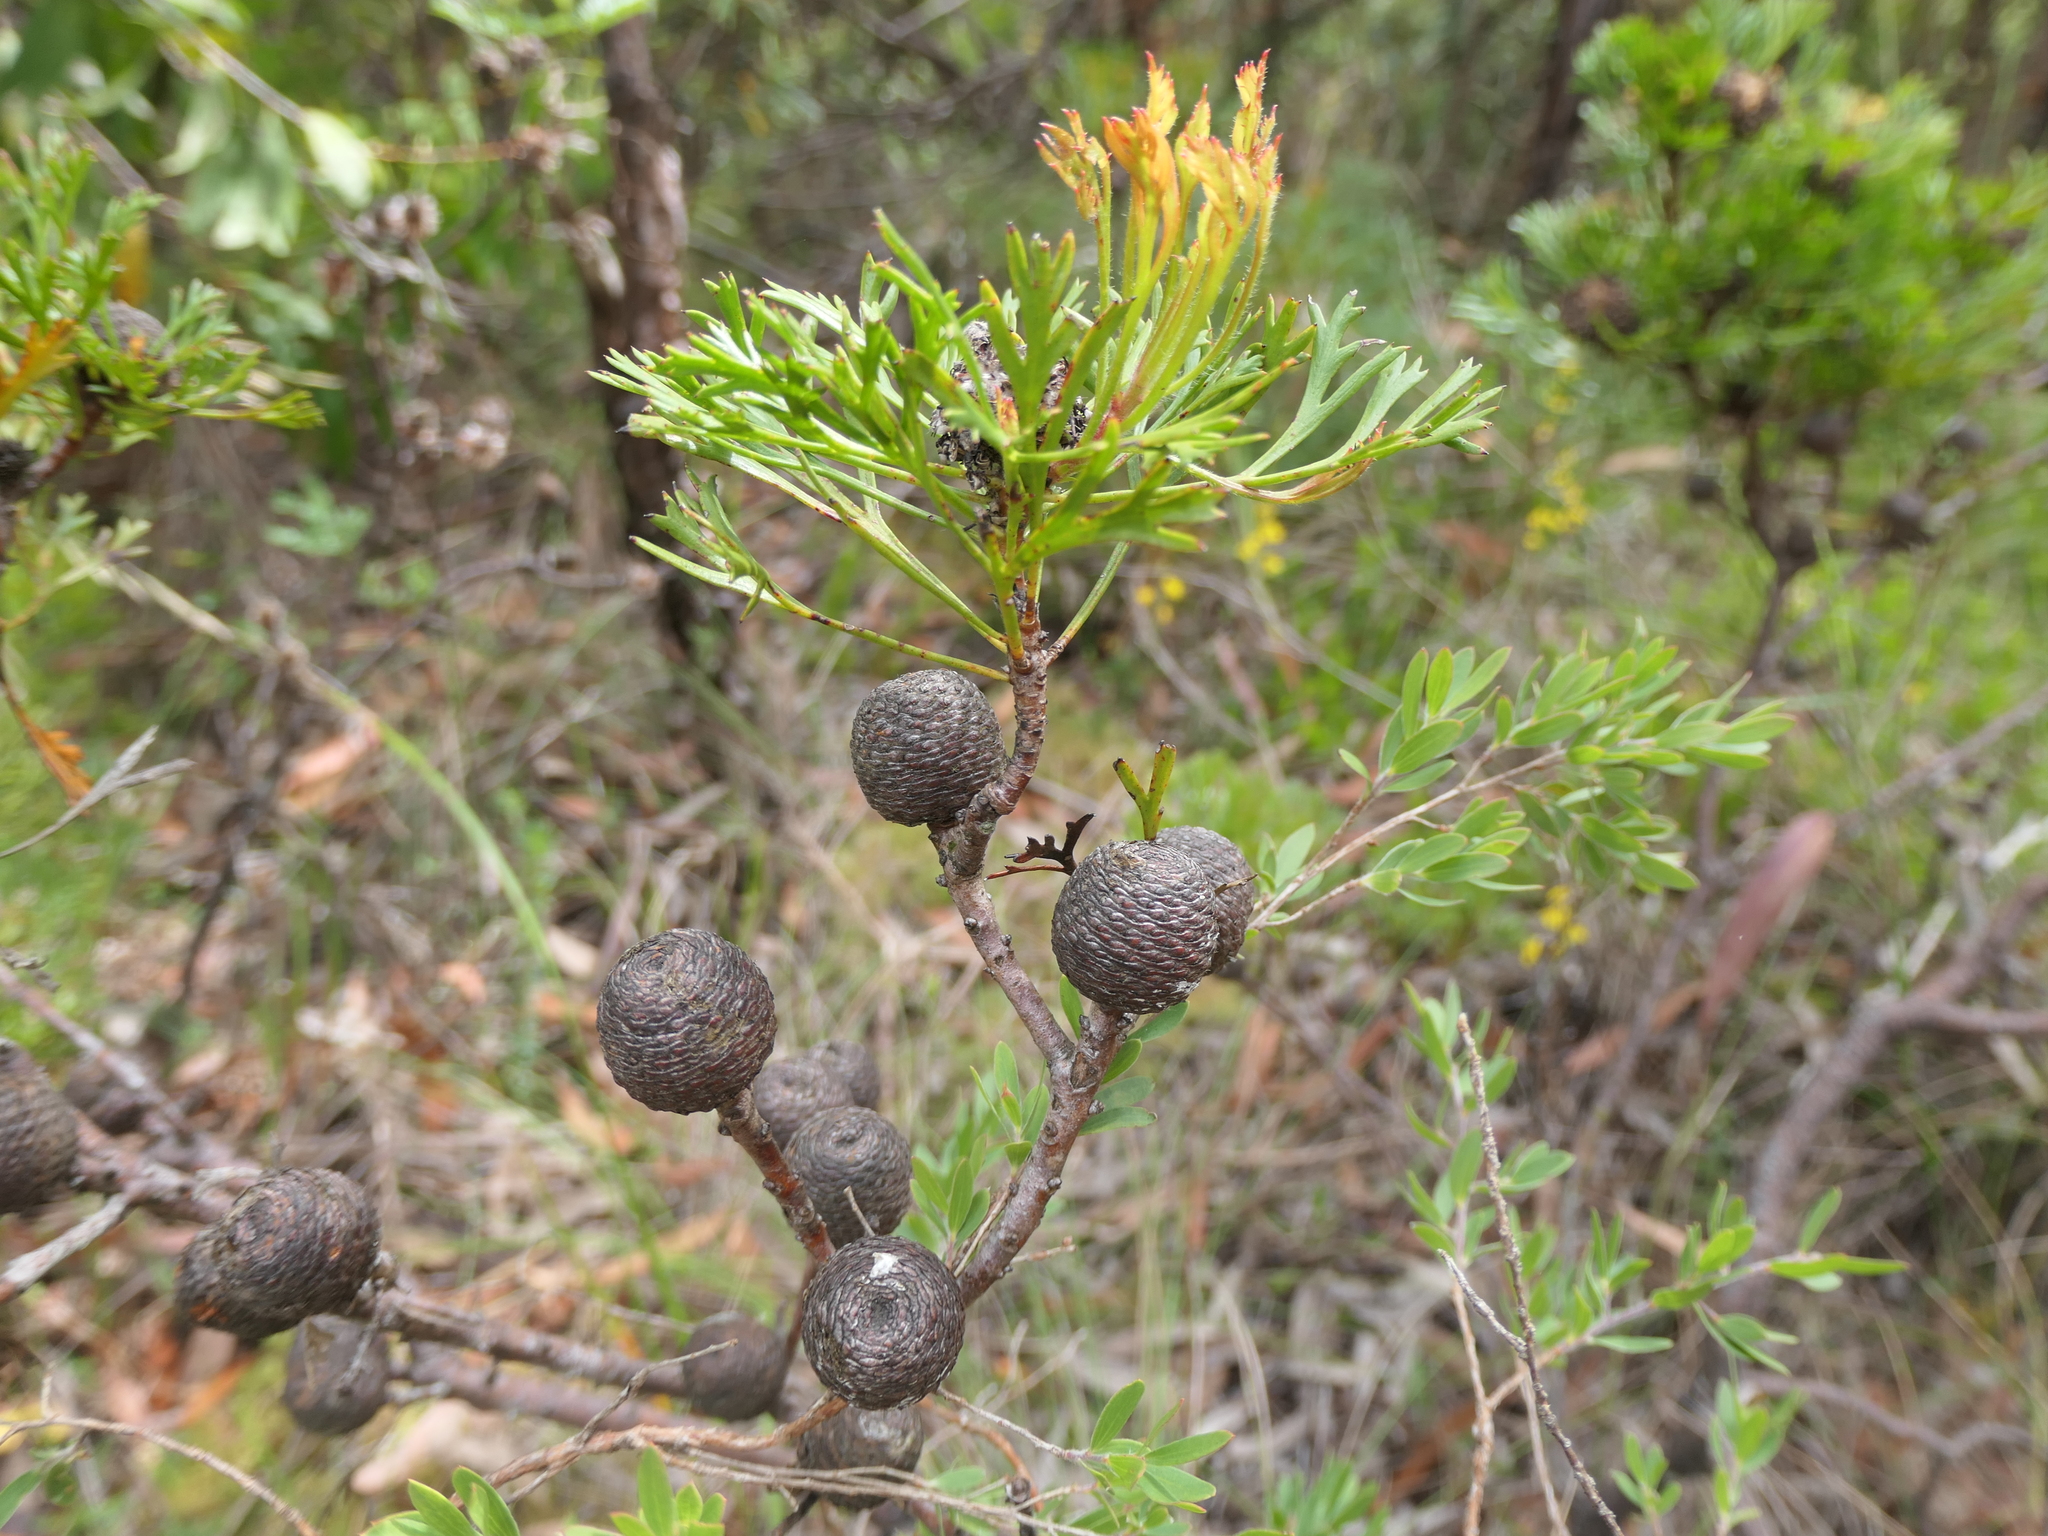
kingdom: Plantae
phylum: Tracheophyta
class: Magnoliopsida
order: Proteales
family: Proteaceae
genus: Isopogon
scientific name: Isopogon anemonifolius
